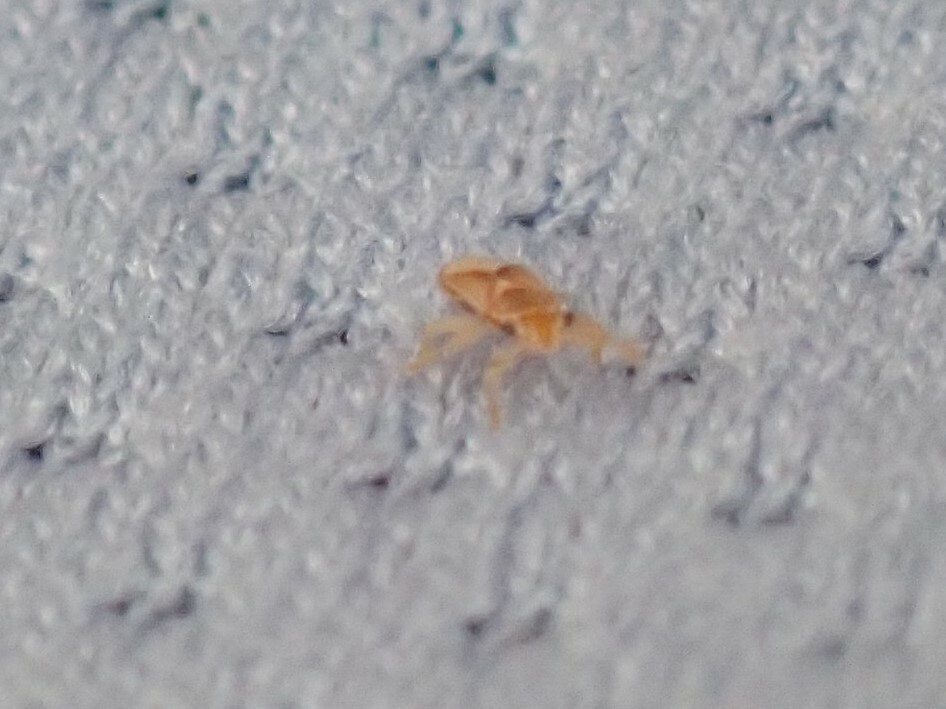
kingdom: Animalia
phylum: Arthropoda
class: Insecta
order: Hemiptera
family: Thaumastocoridae
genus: Thaumastocoris
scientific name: Thaumastocoris peregrinus
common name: Bronze bug
